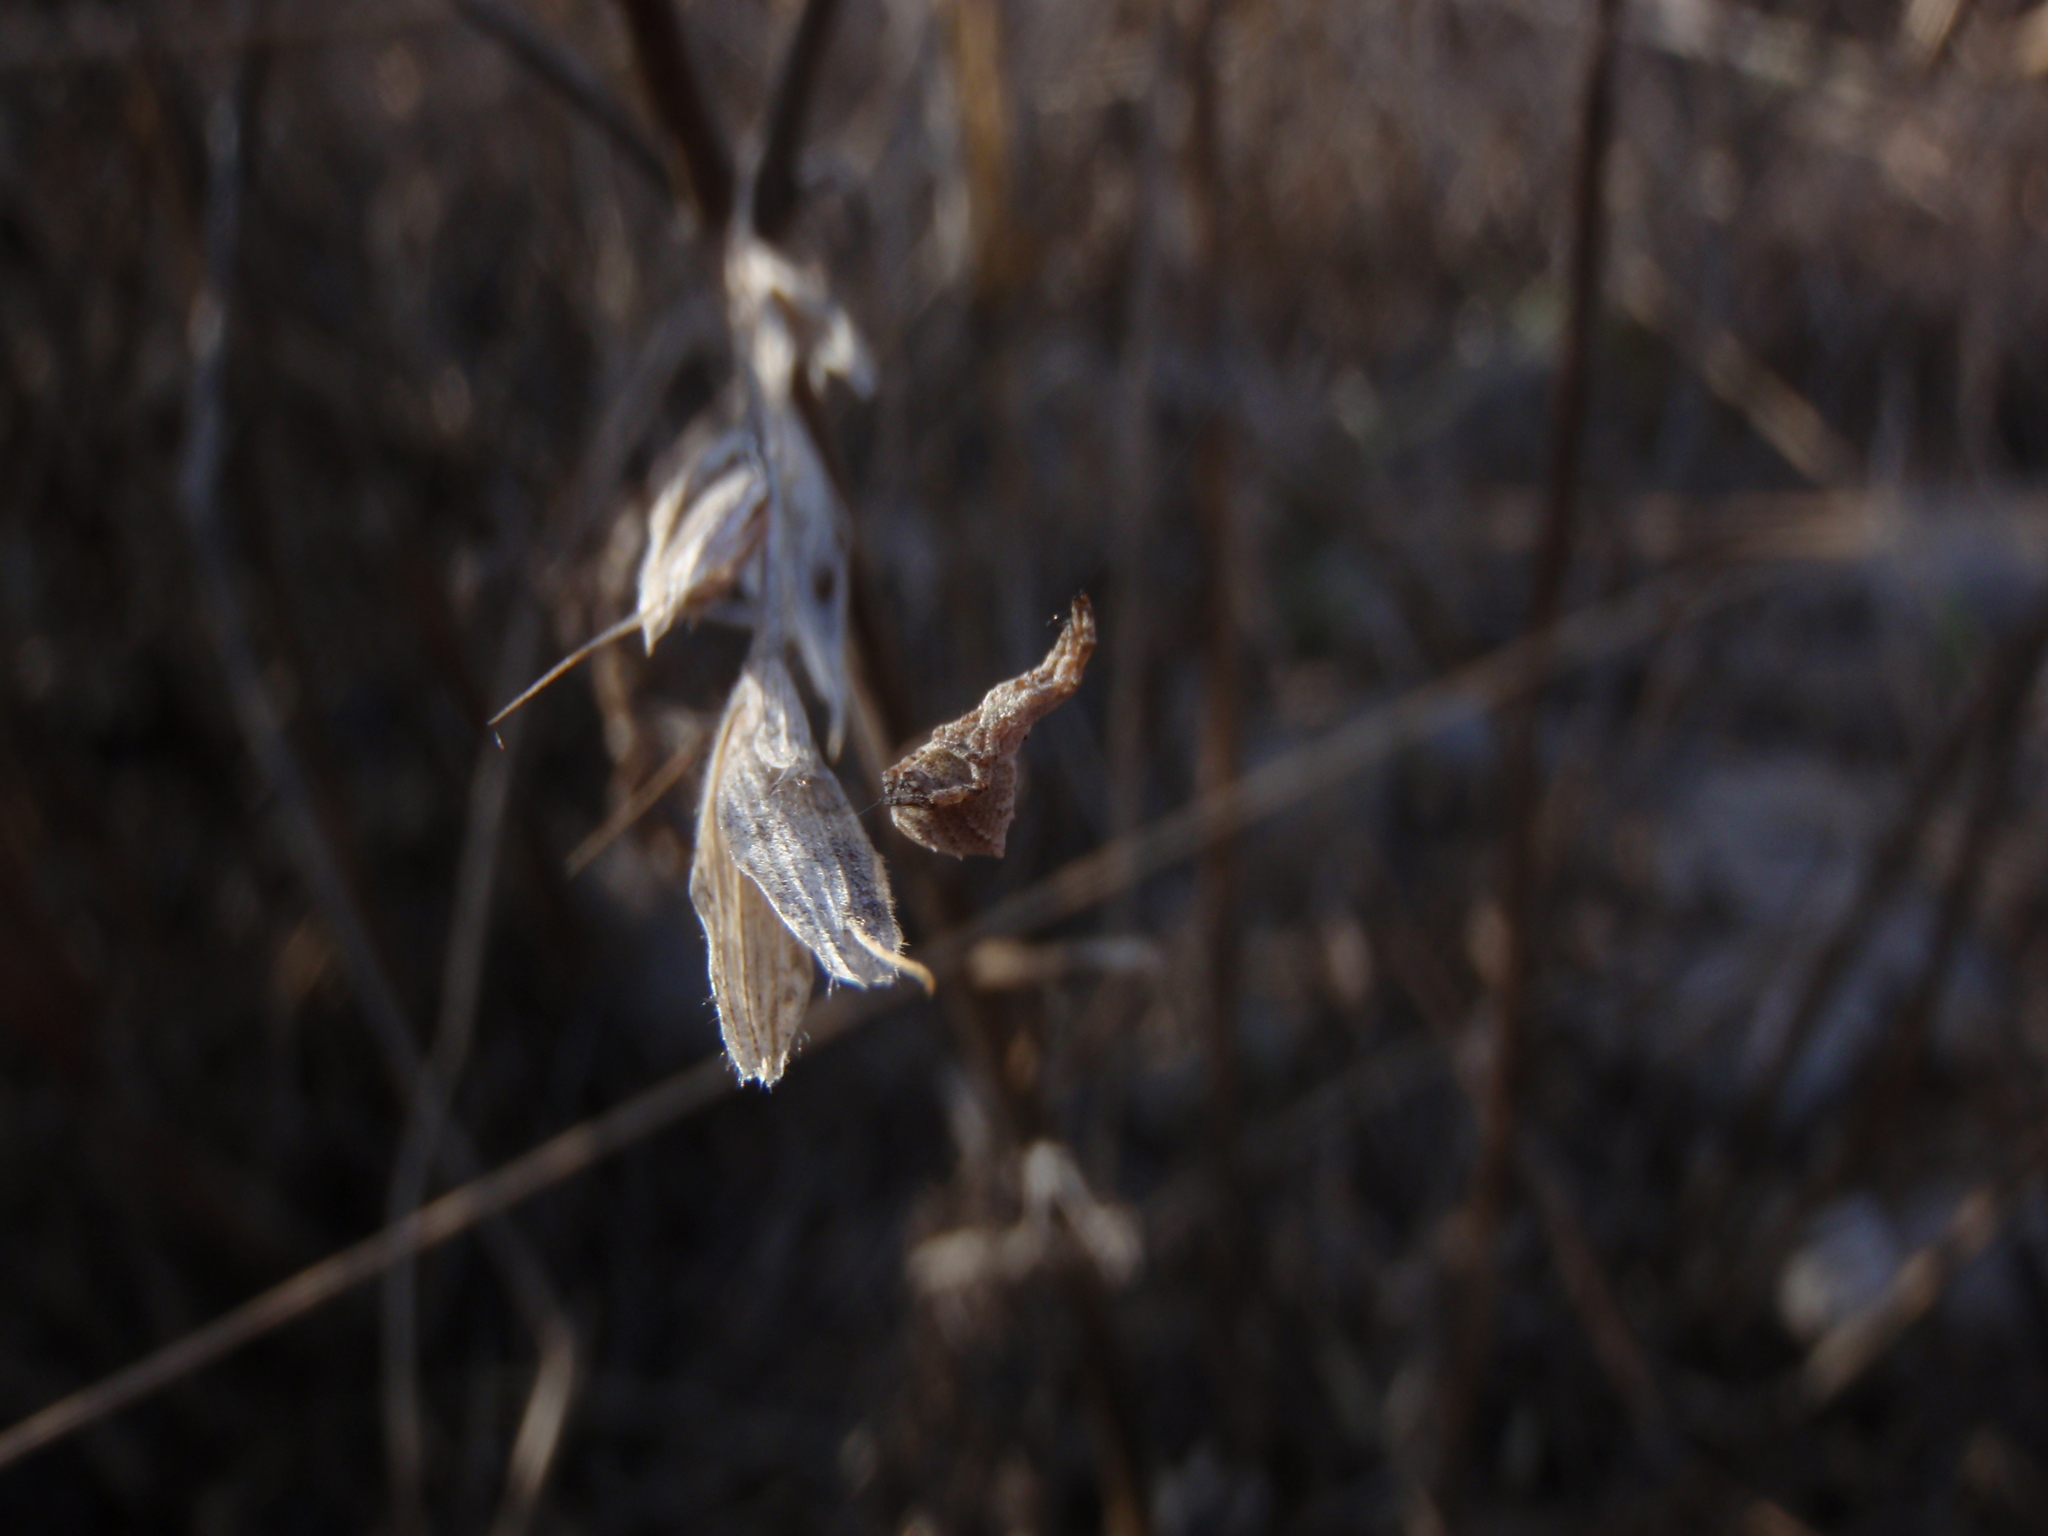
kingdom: Animalia
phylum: Arthropoda
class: Arachnida
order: Araneae
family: Uloboridae
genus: Hyptiotes
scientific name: Hyptiotes
